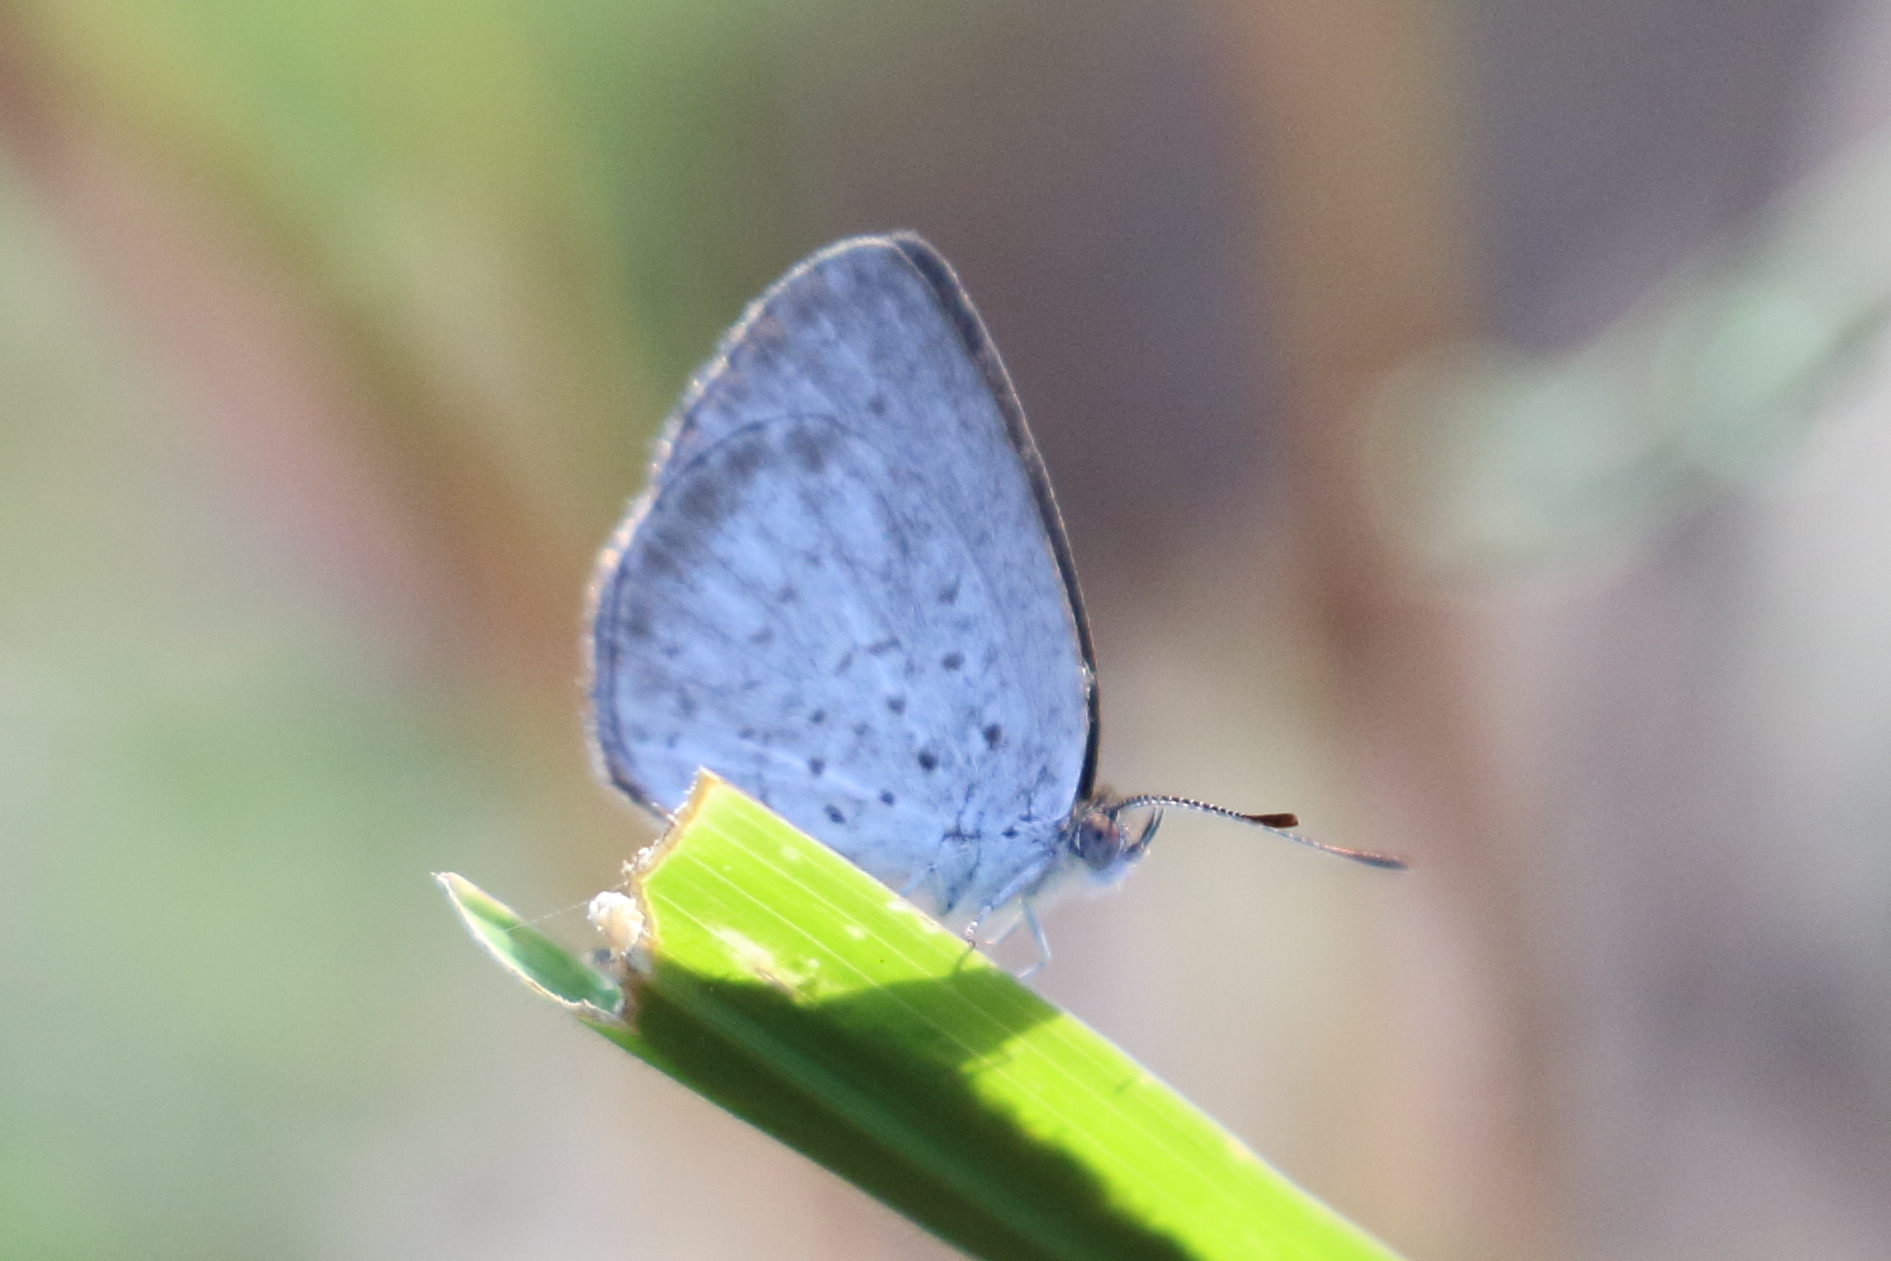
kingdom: Animalia
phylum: Arthropoda
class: Insecta
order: Lepidoptera
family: Lycaenidae
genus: Candalides
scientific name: Candalides
